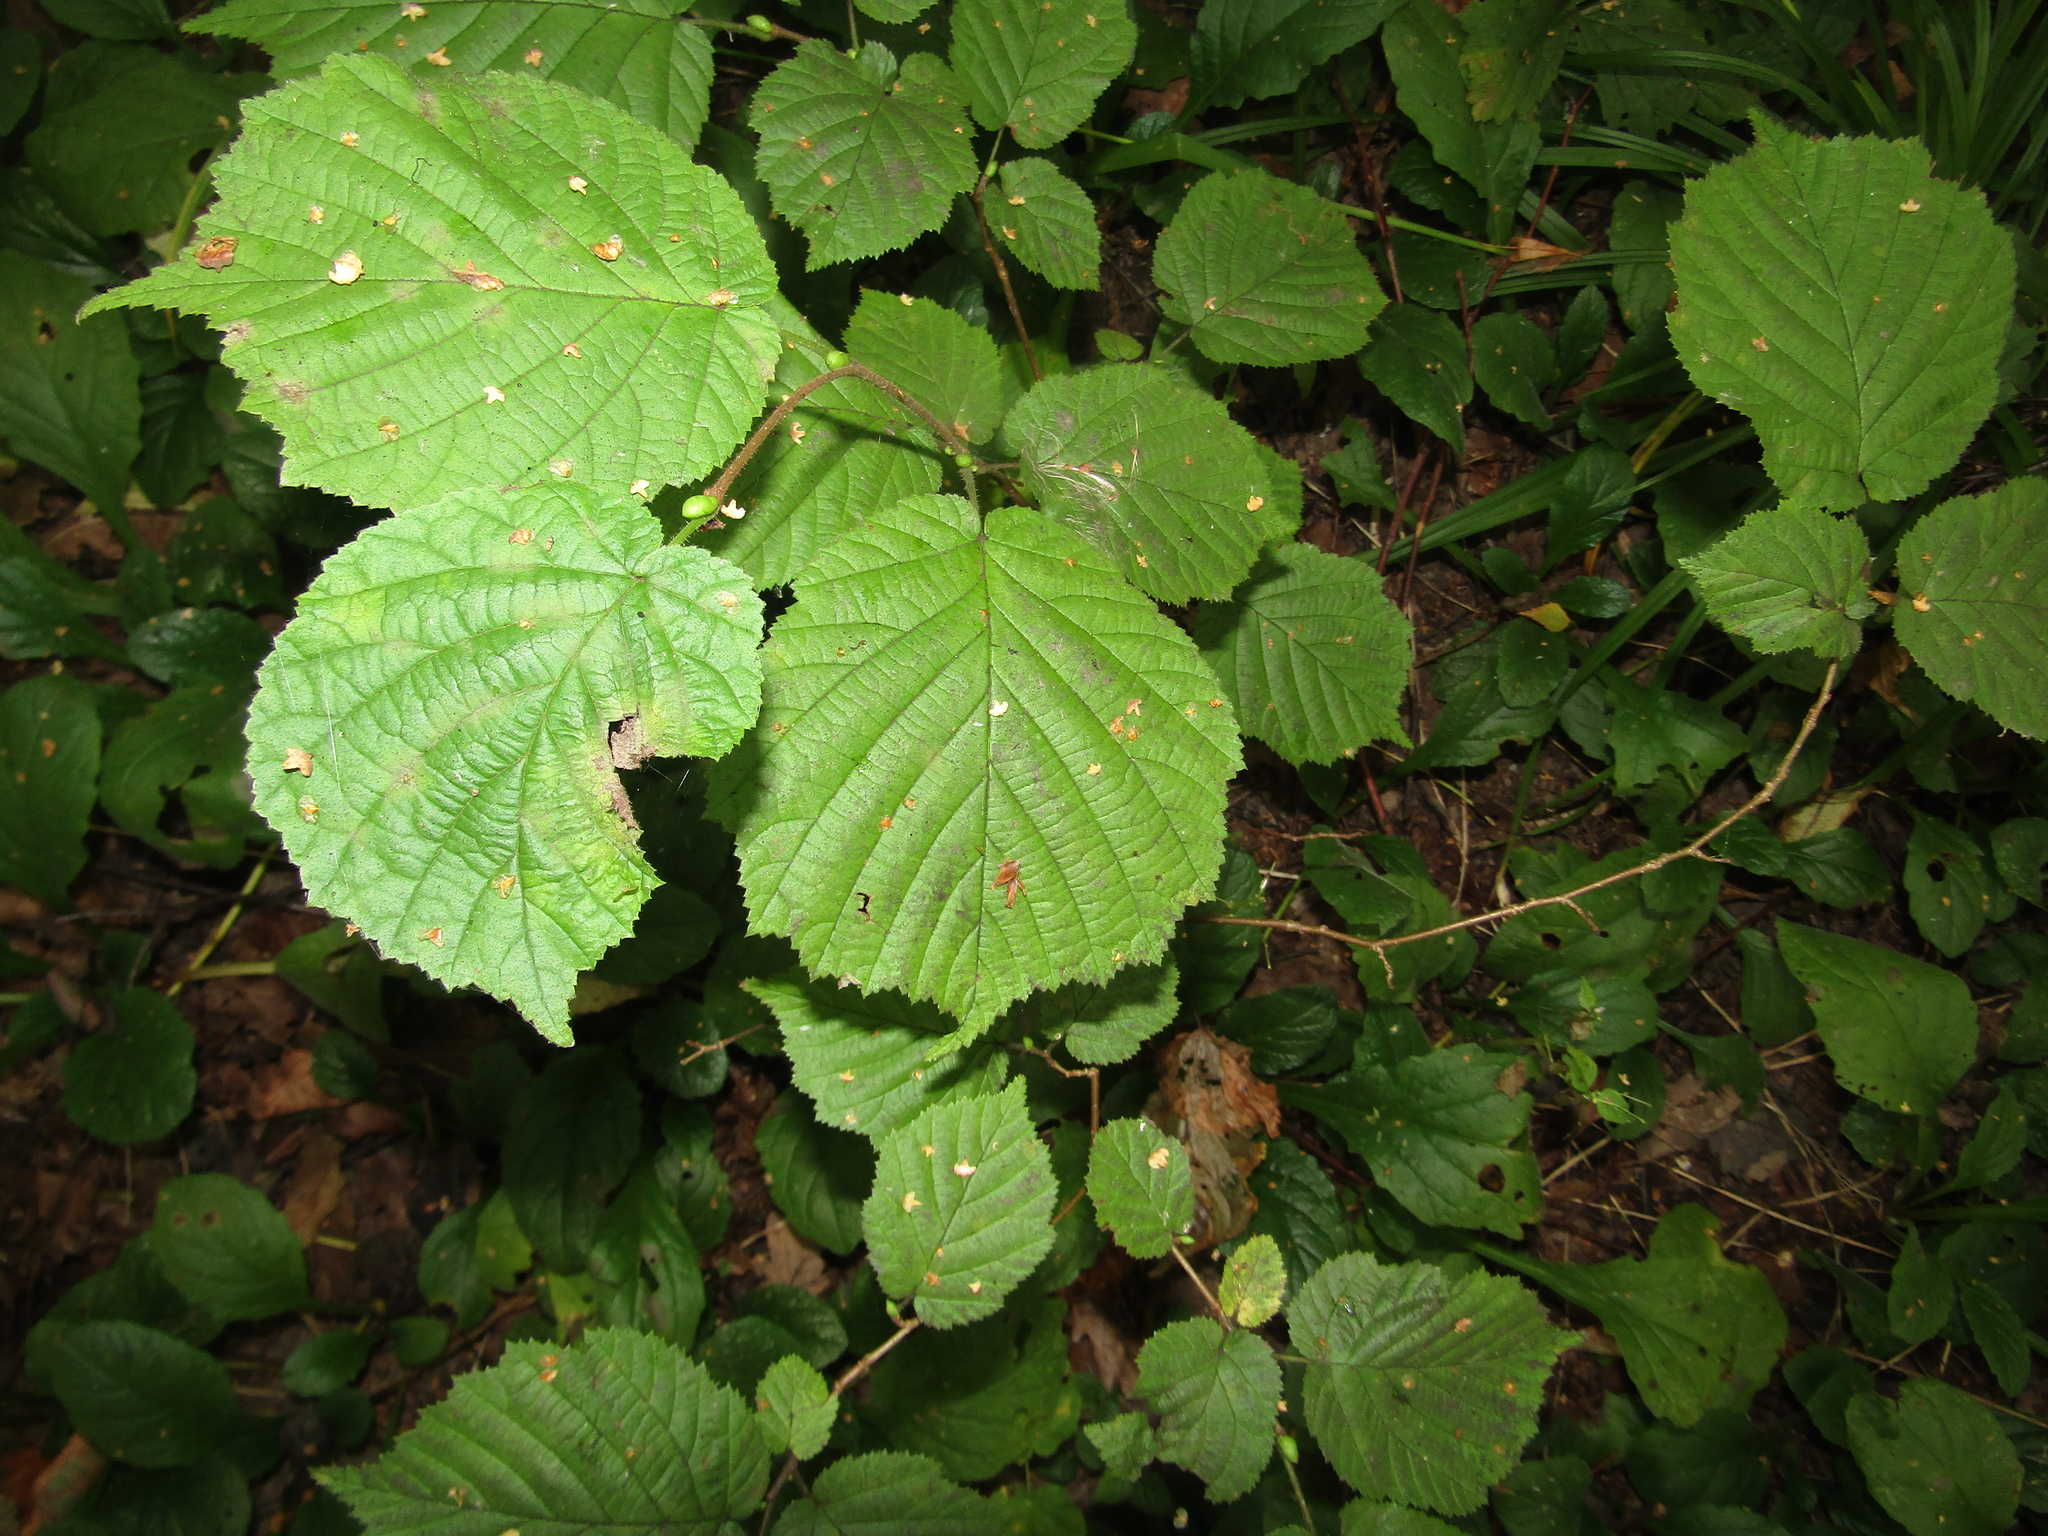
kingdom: Plantae
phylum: Tracheophyta
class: Magnoliopsida
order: Fagales
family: Betulaceae
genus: Corylus
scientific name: Corylus avellana
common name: European hazel
